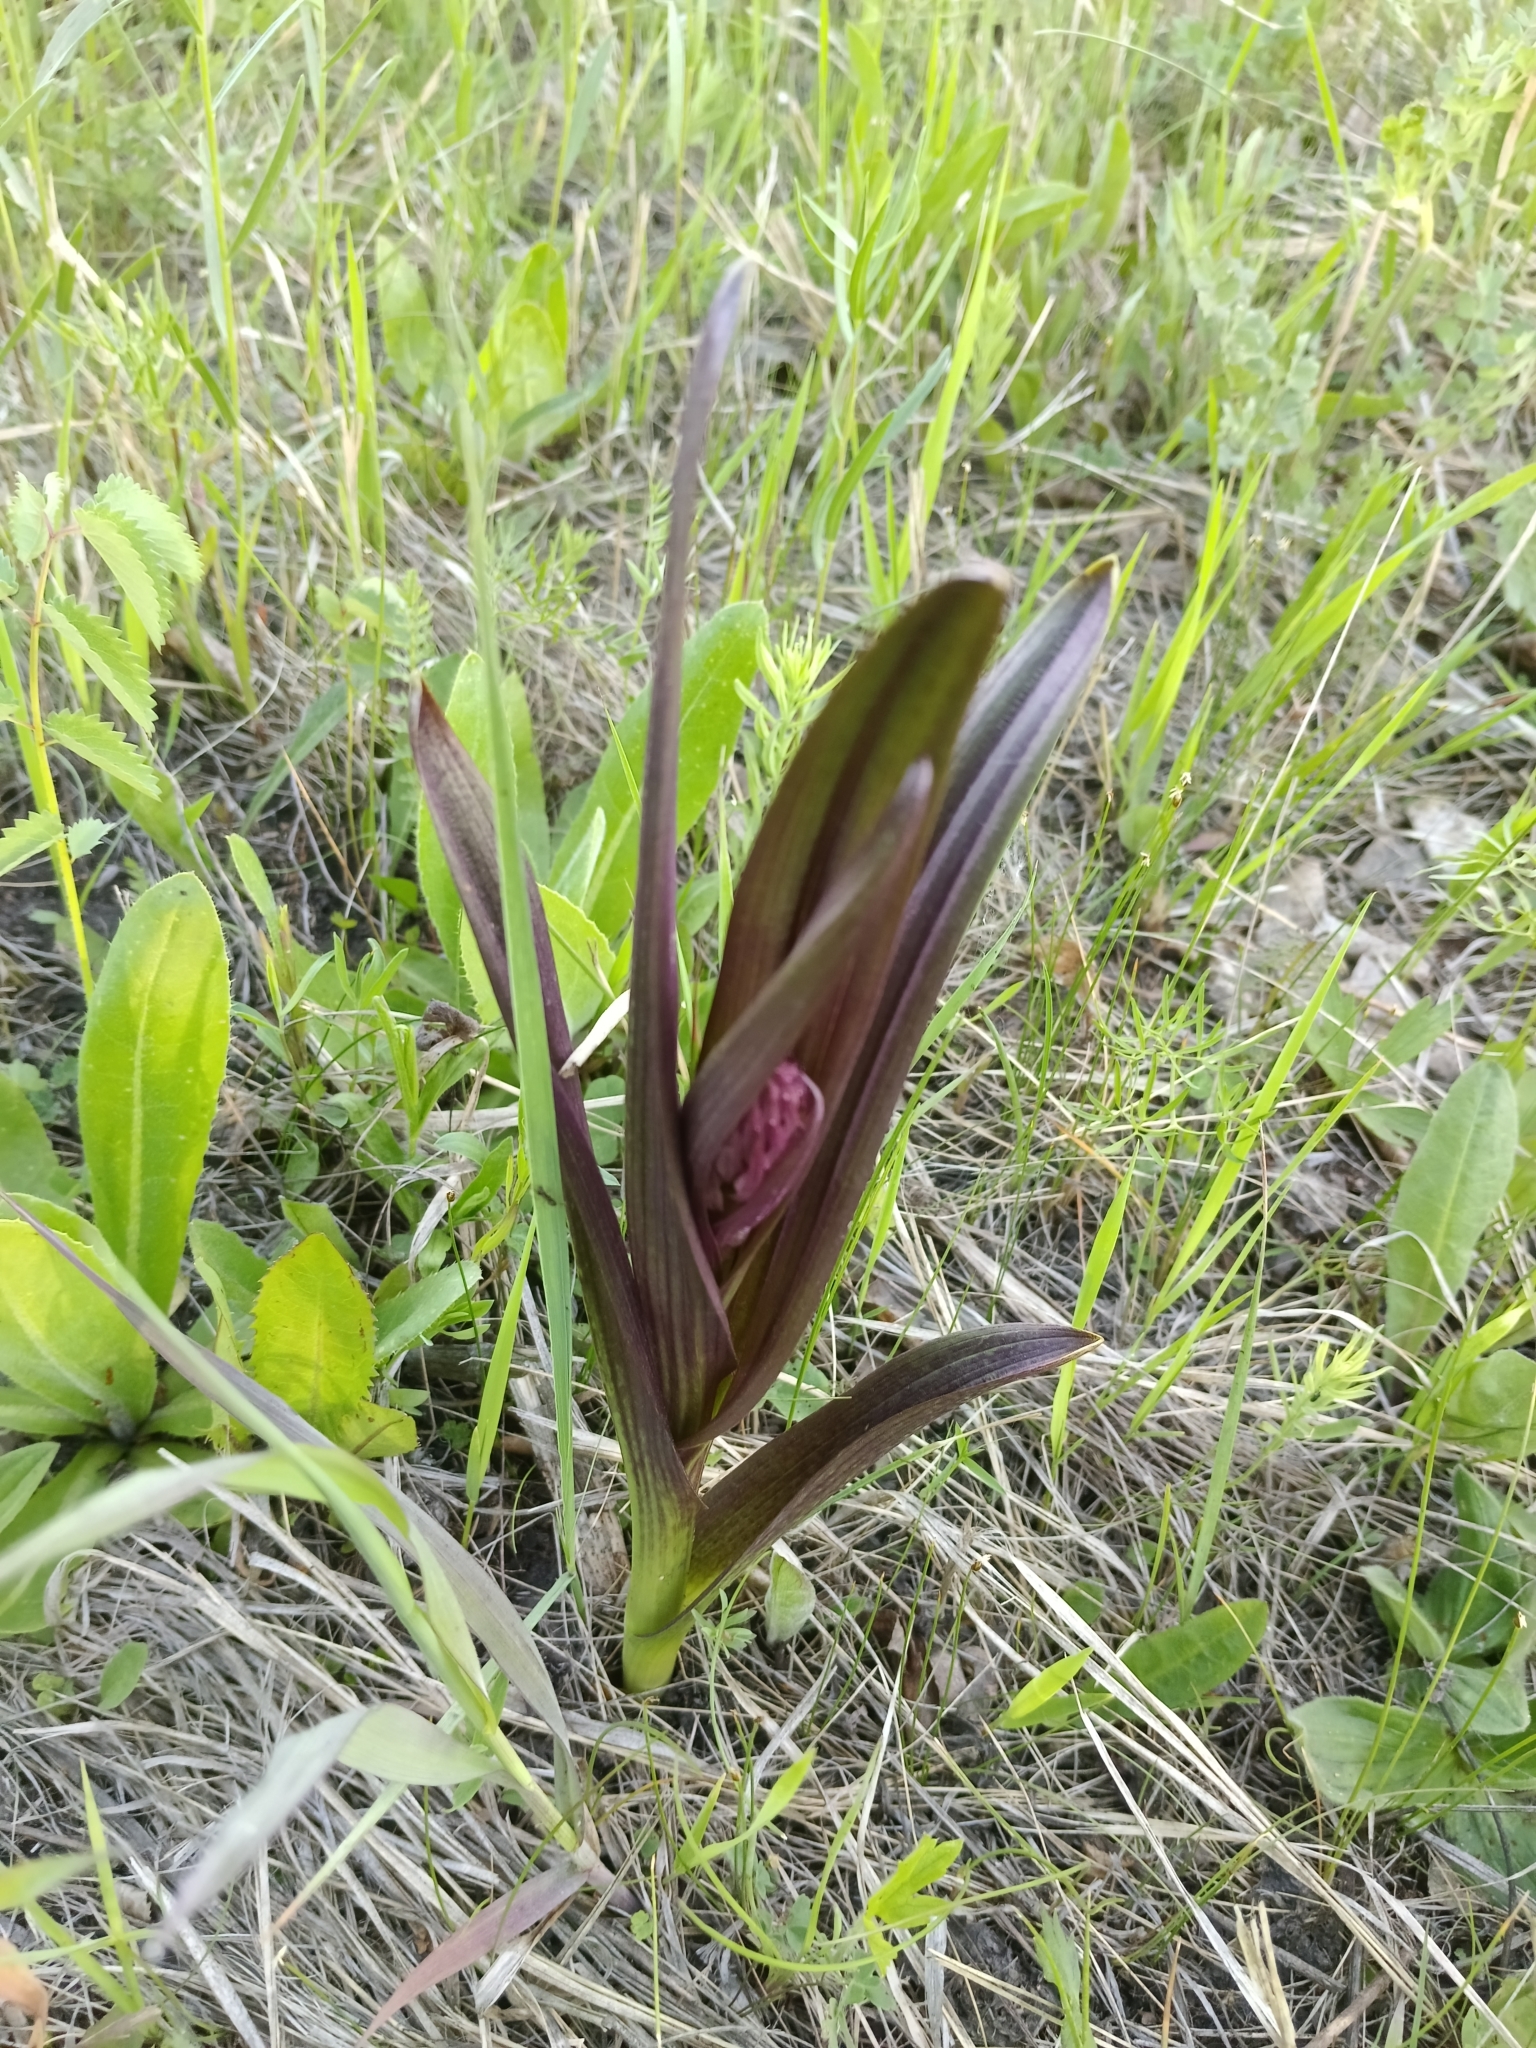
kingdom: Plantae
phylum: Tracheophyta
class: Liliopsida
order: Asparagales
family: Orchidaceae
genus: Dactylorhiza
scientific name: Dactylorhiza incarnata
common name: Early marsh-orchid
